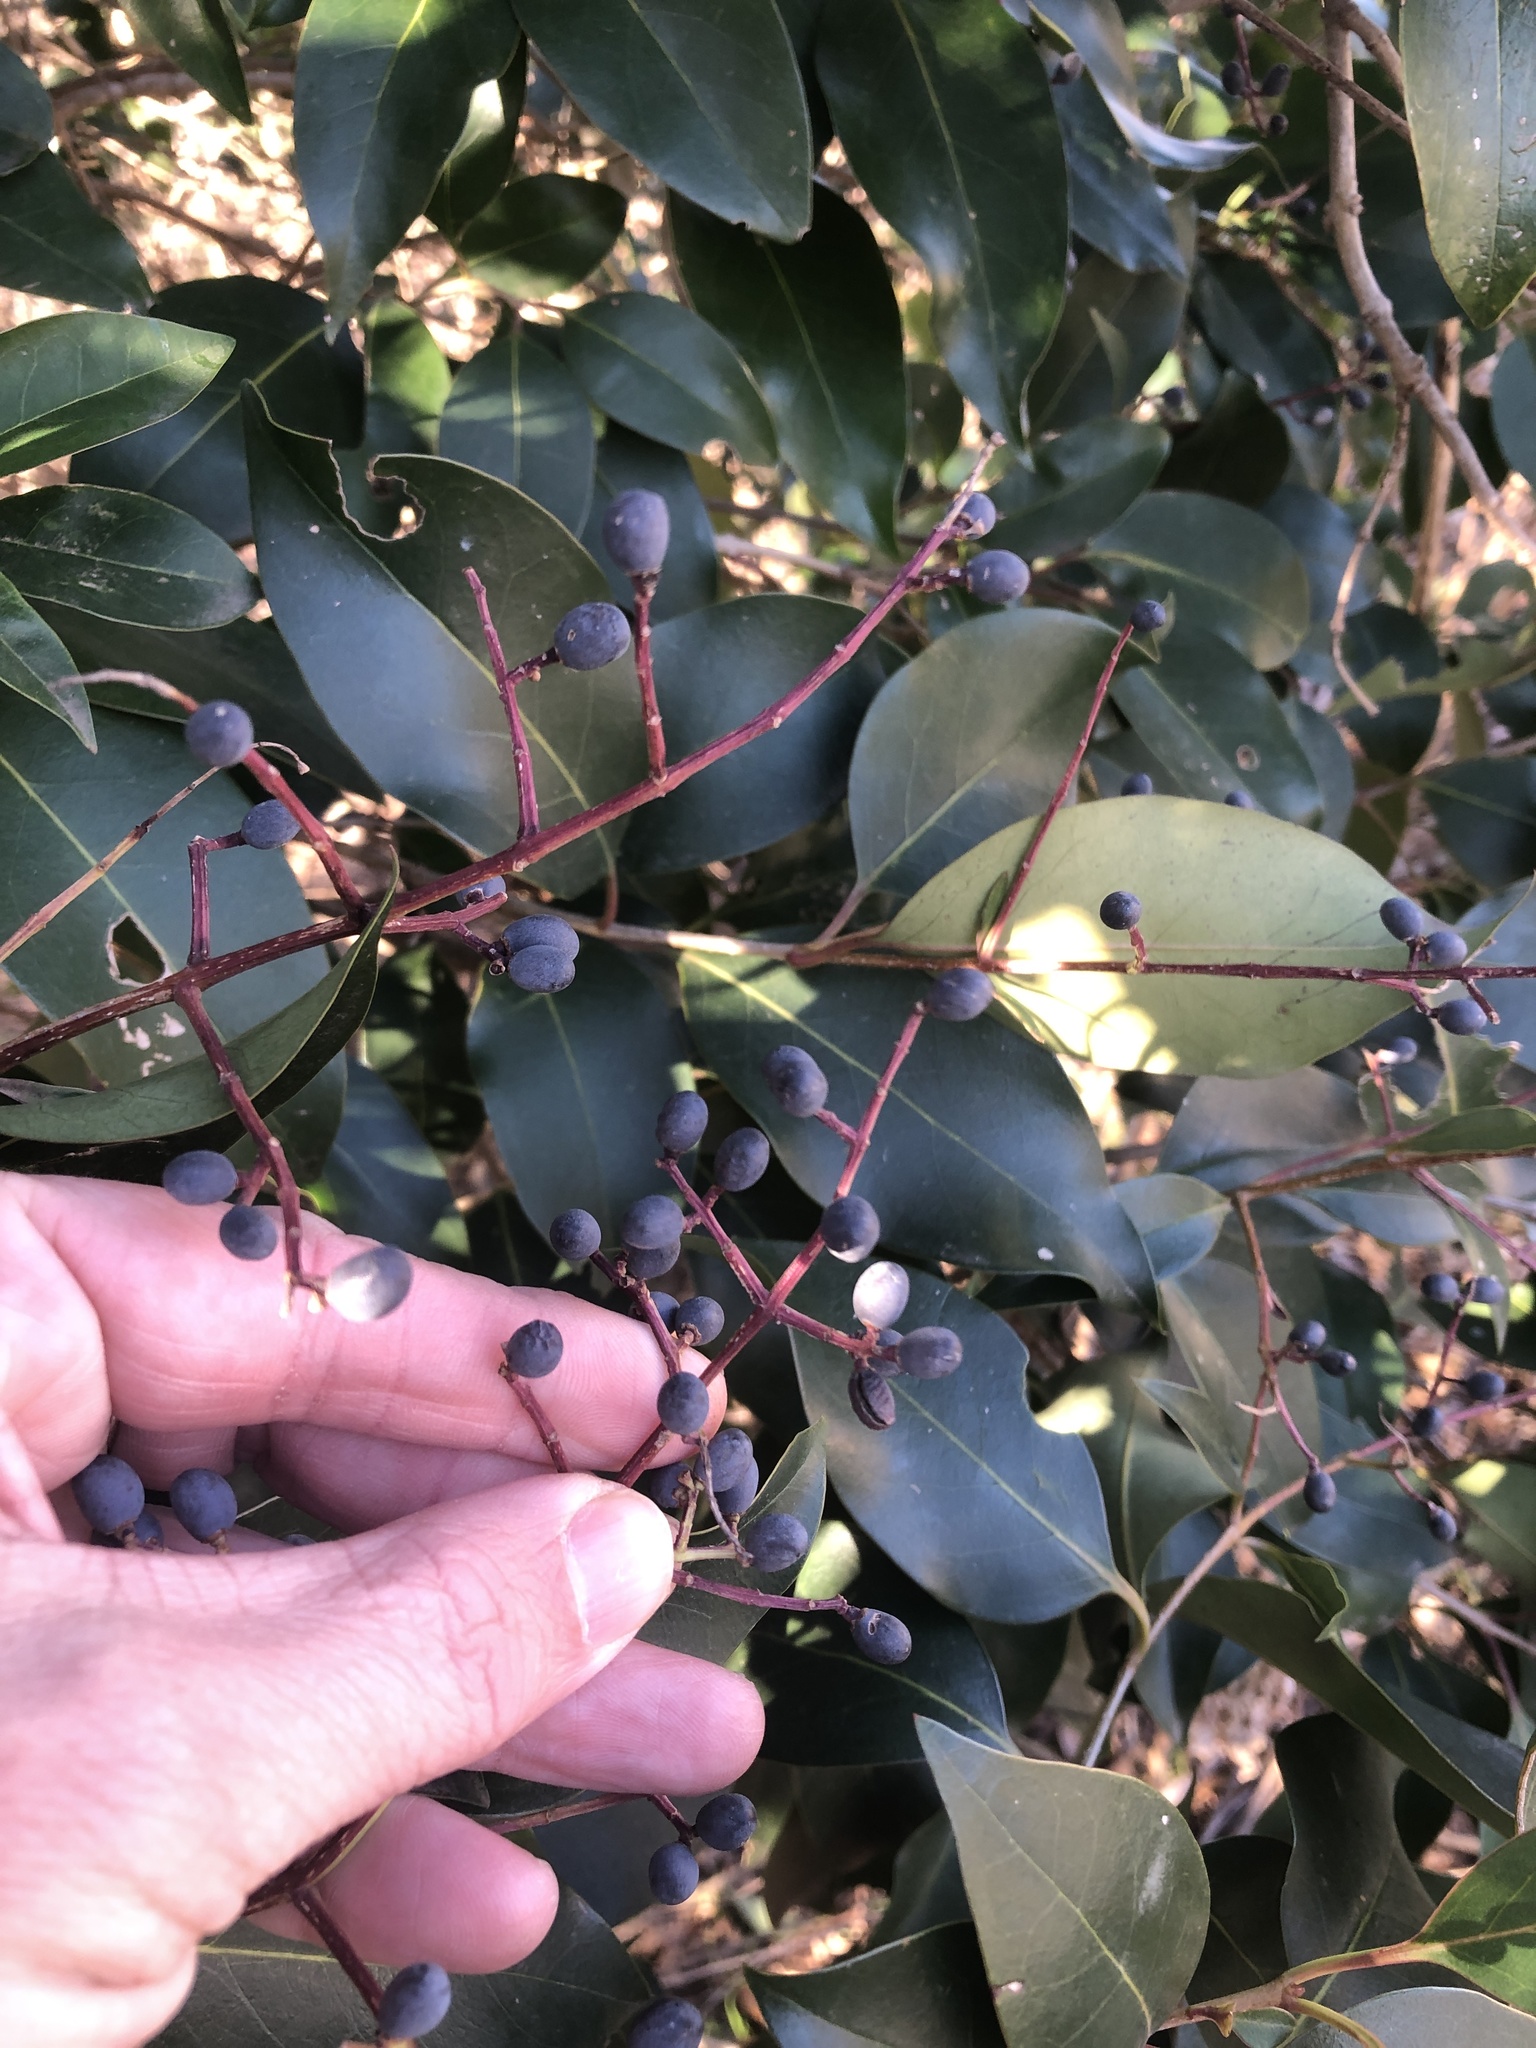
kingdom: Plantae
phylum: Tracheophyta
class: Magnoliopsida
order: Lamiales
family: Oleaceae
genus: Ligustrum
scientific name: Ligustrum lucidum
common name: Glossy privet
